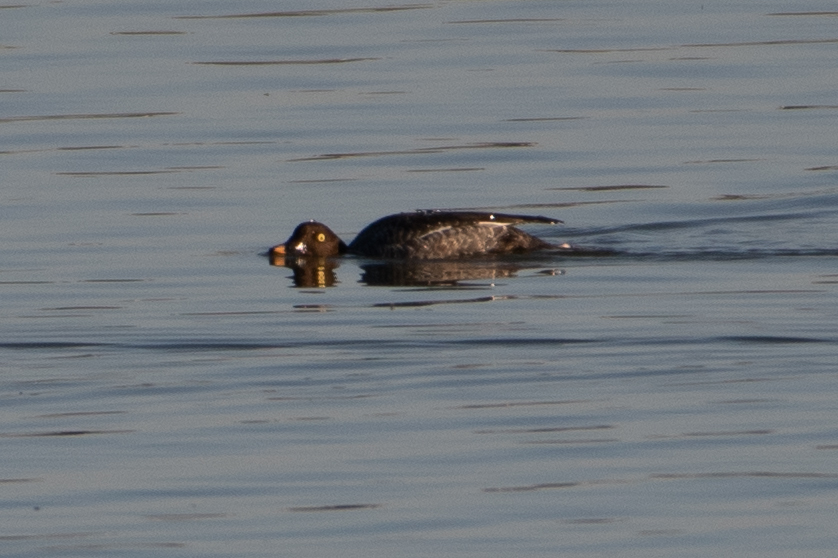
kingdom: Animalia
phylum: Chordata
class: Aves
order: Anseriformes
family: Anatidae
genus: Bucephala
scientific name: Bucephala clangula
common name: Common goldeneye
